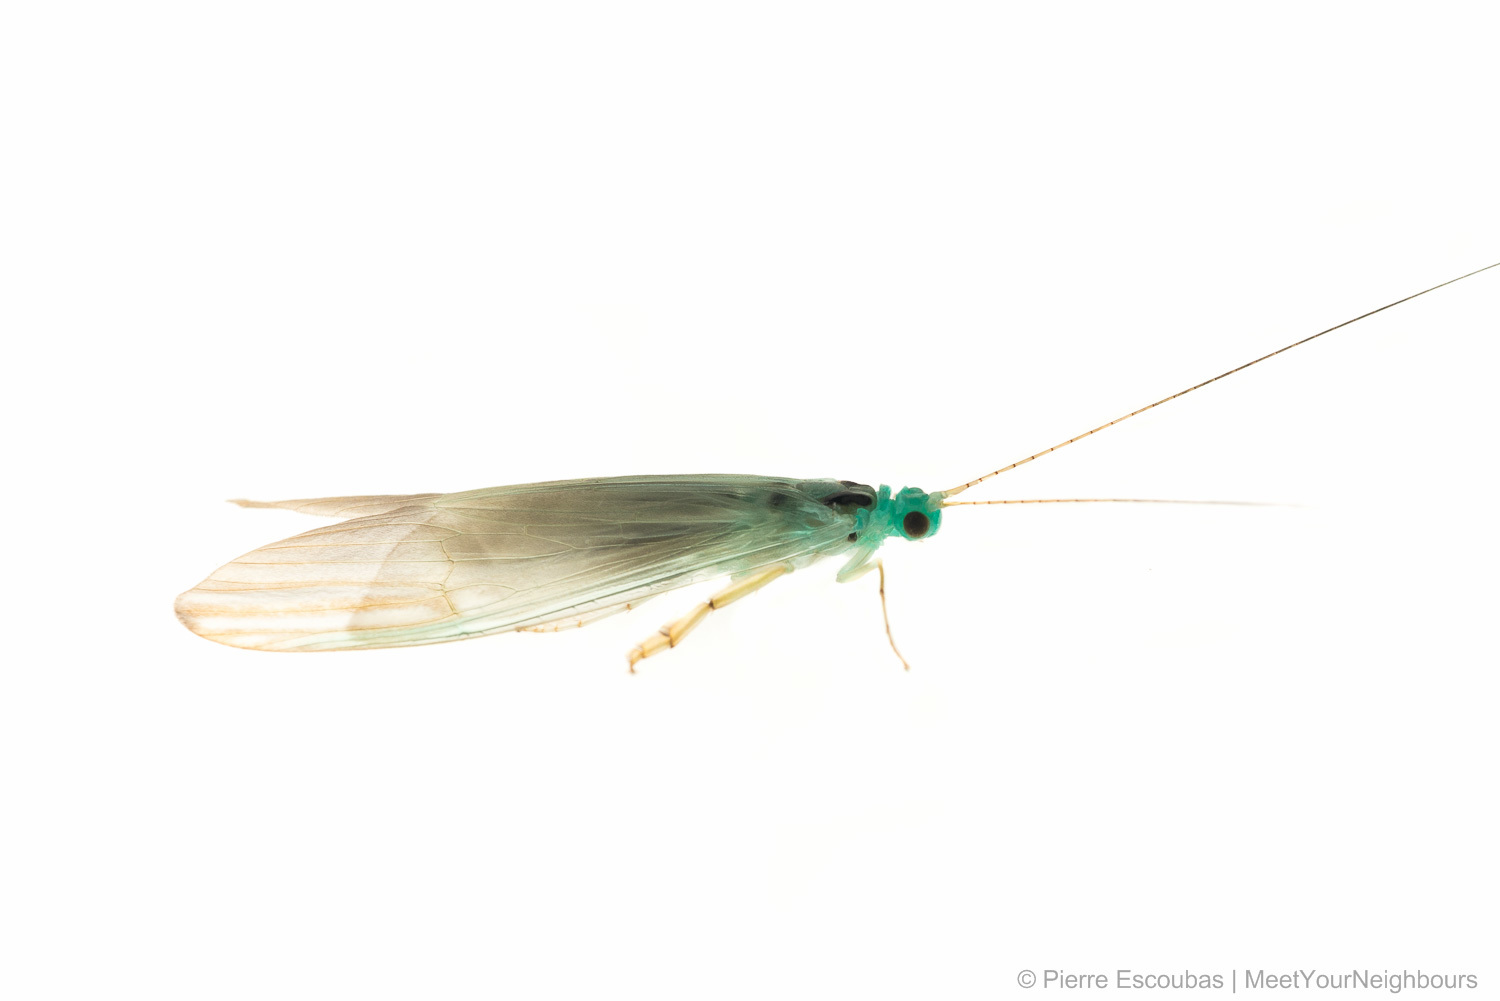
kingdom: Animalia
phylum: Arthropoda
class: Insecta
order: Trichoptera
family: Hydropsychidae
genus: Polymorphanisus
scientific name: Polymorphanisus quadripunctatus
